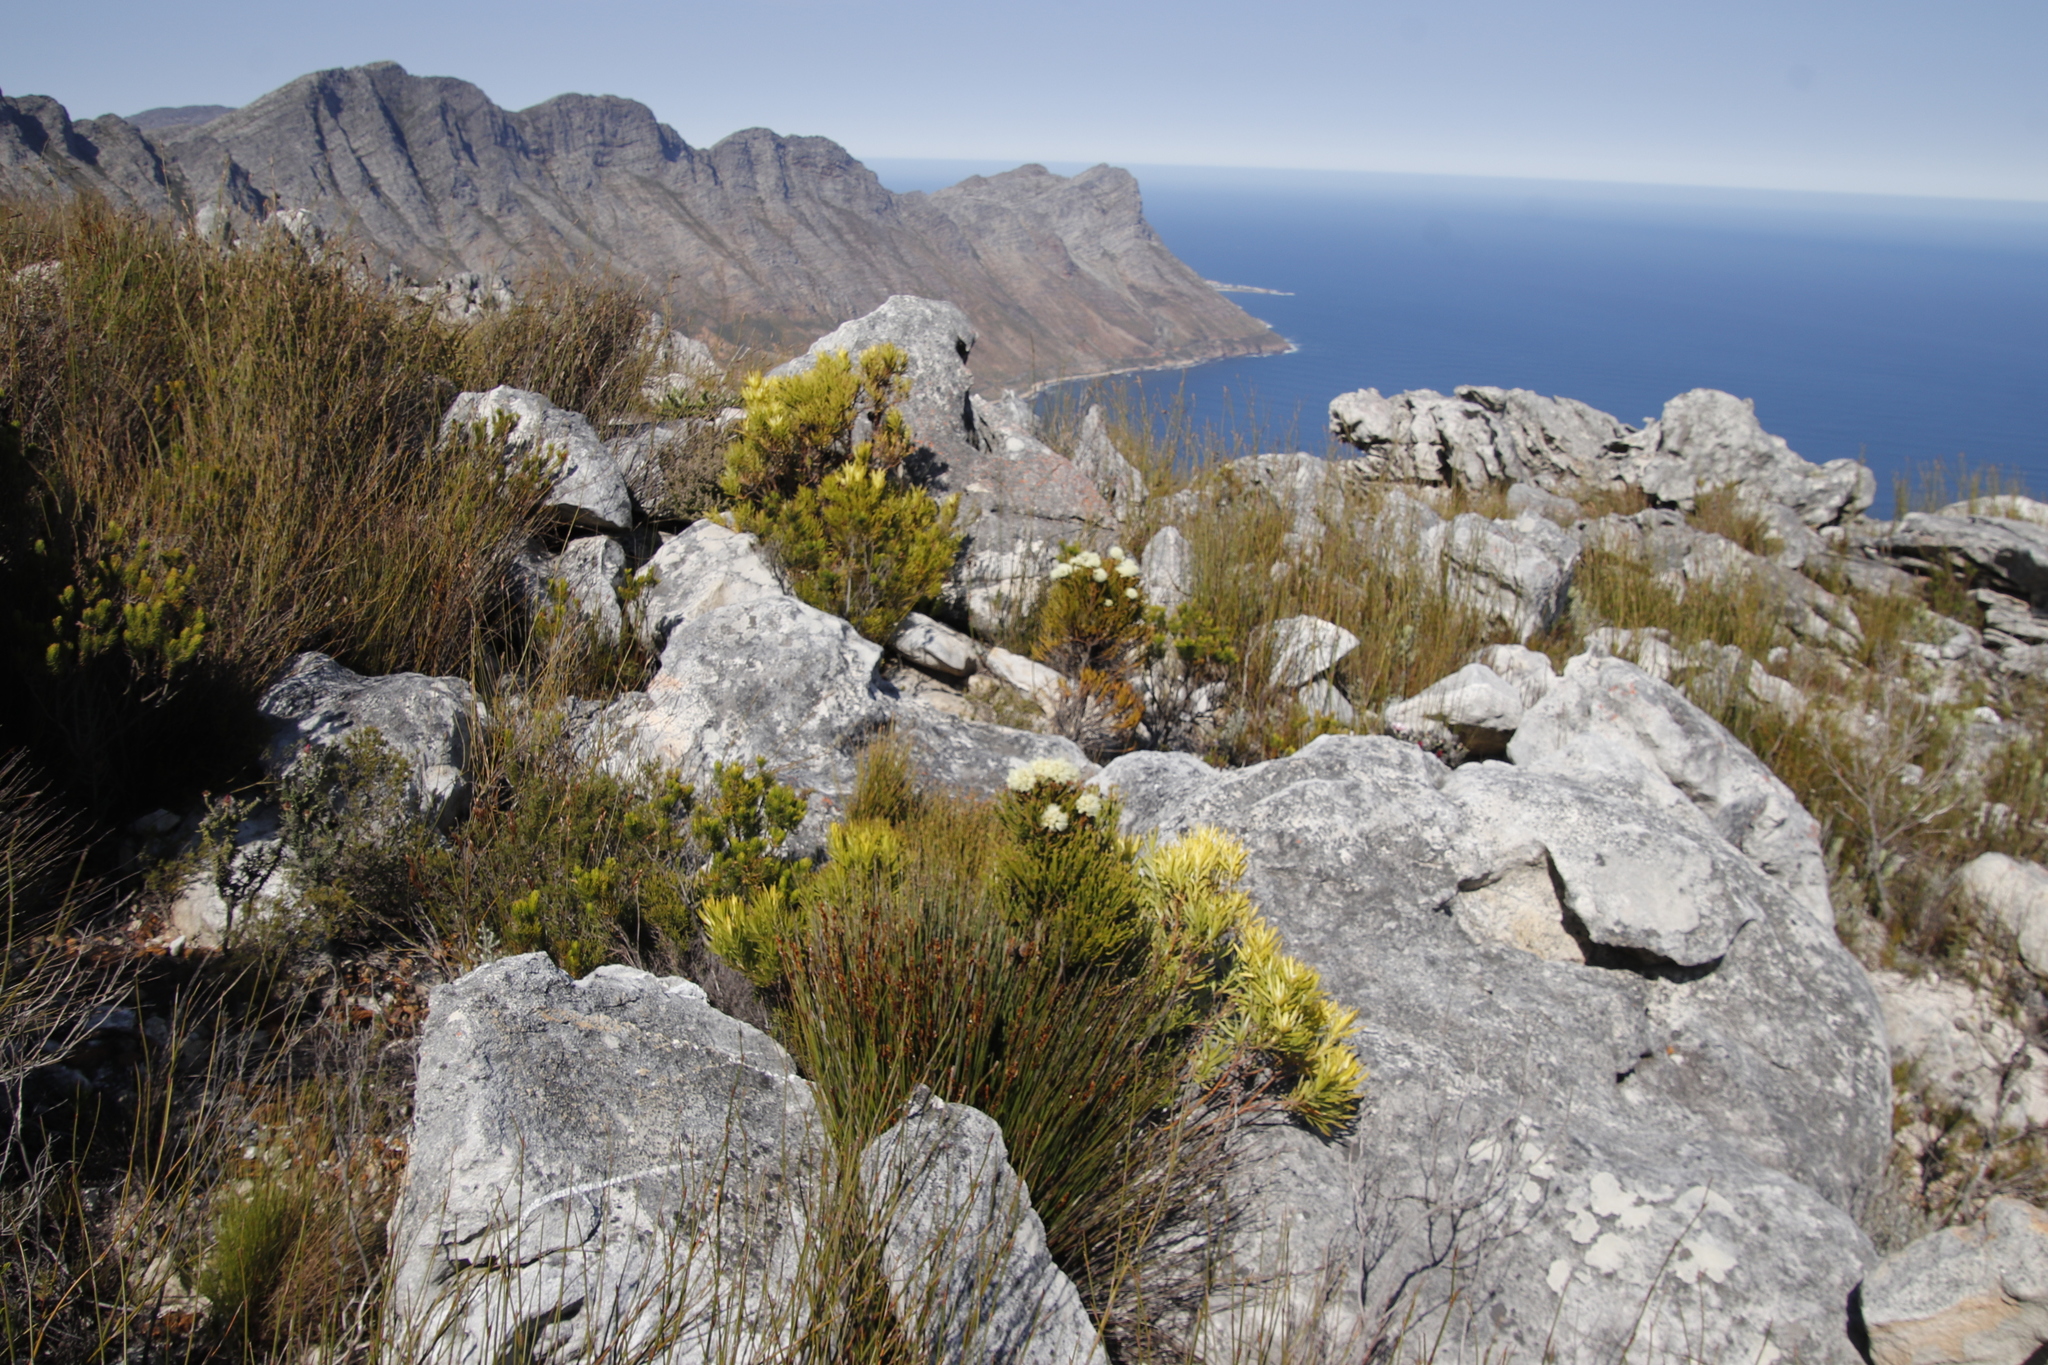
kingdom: Plantae
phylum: Tracheophyta
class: Magnoliopsida
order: Proteales
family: Proteaceae
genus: Leucadendron
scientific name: Leucadendron xanthoconus
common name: Sickle-leaf conebush
